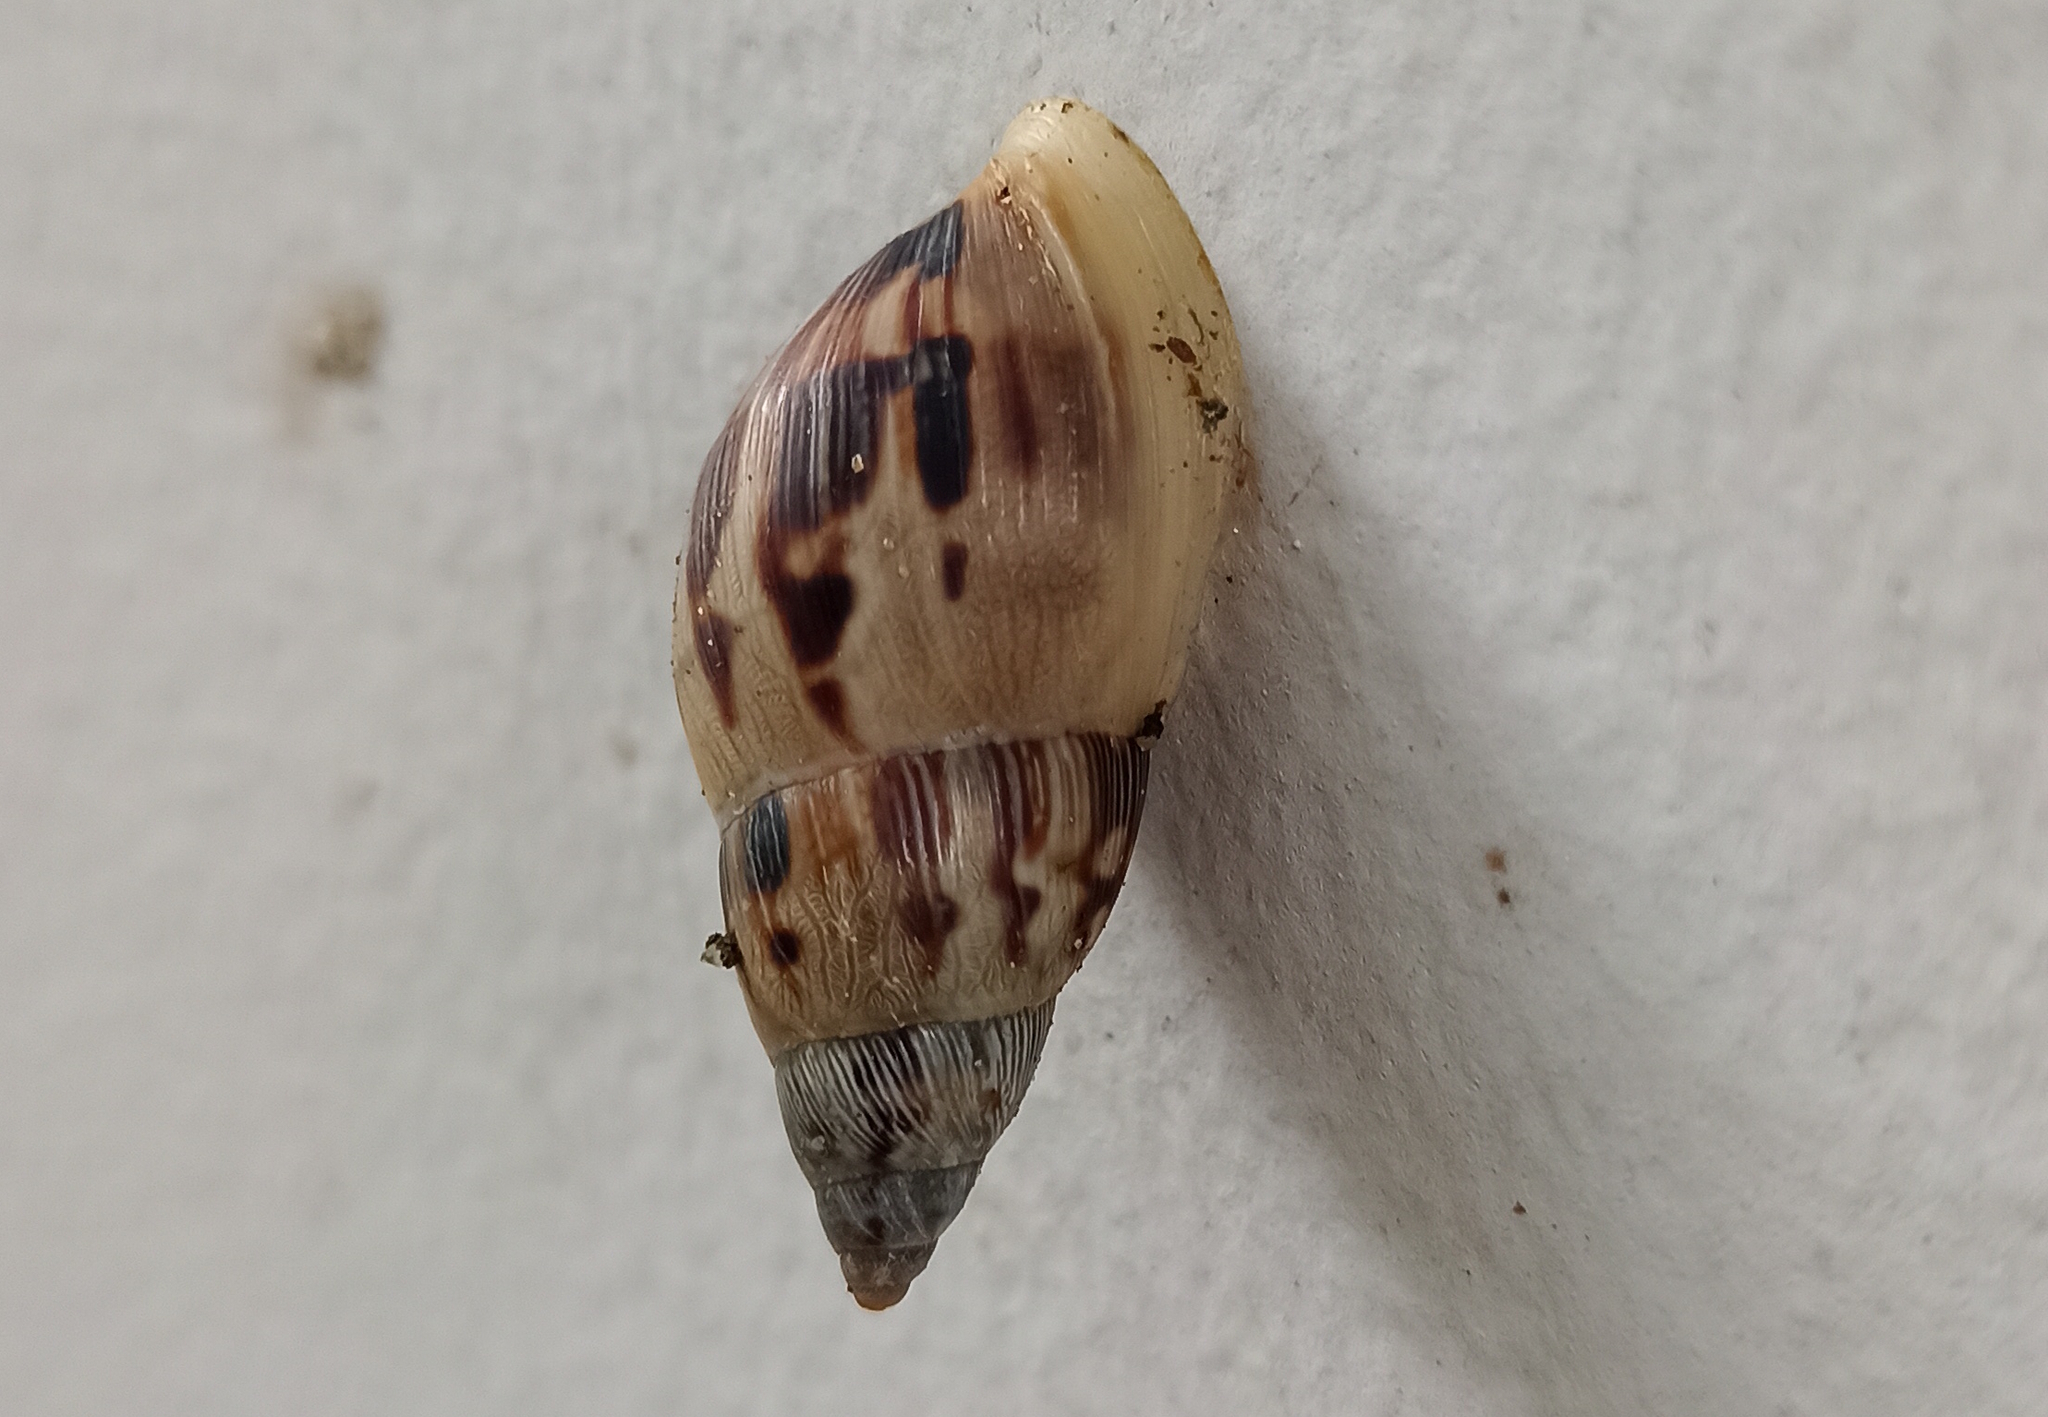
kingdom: Animalia
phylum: Mollusca
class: Gastropoda
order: Stylommatophora
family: Bulimulidae
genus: Drymaeus
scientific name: Drymaeus papyraceus
